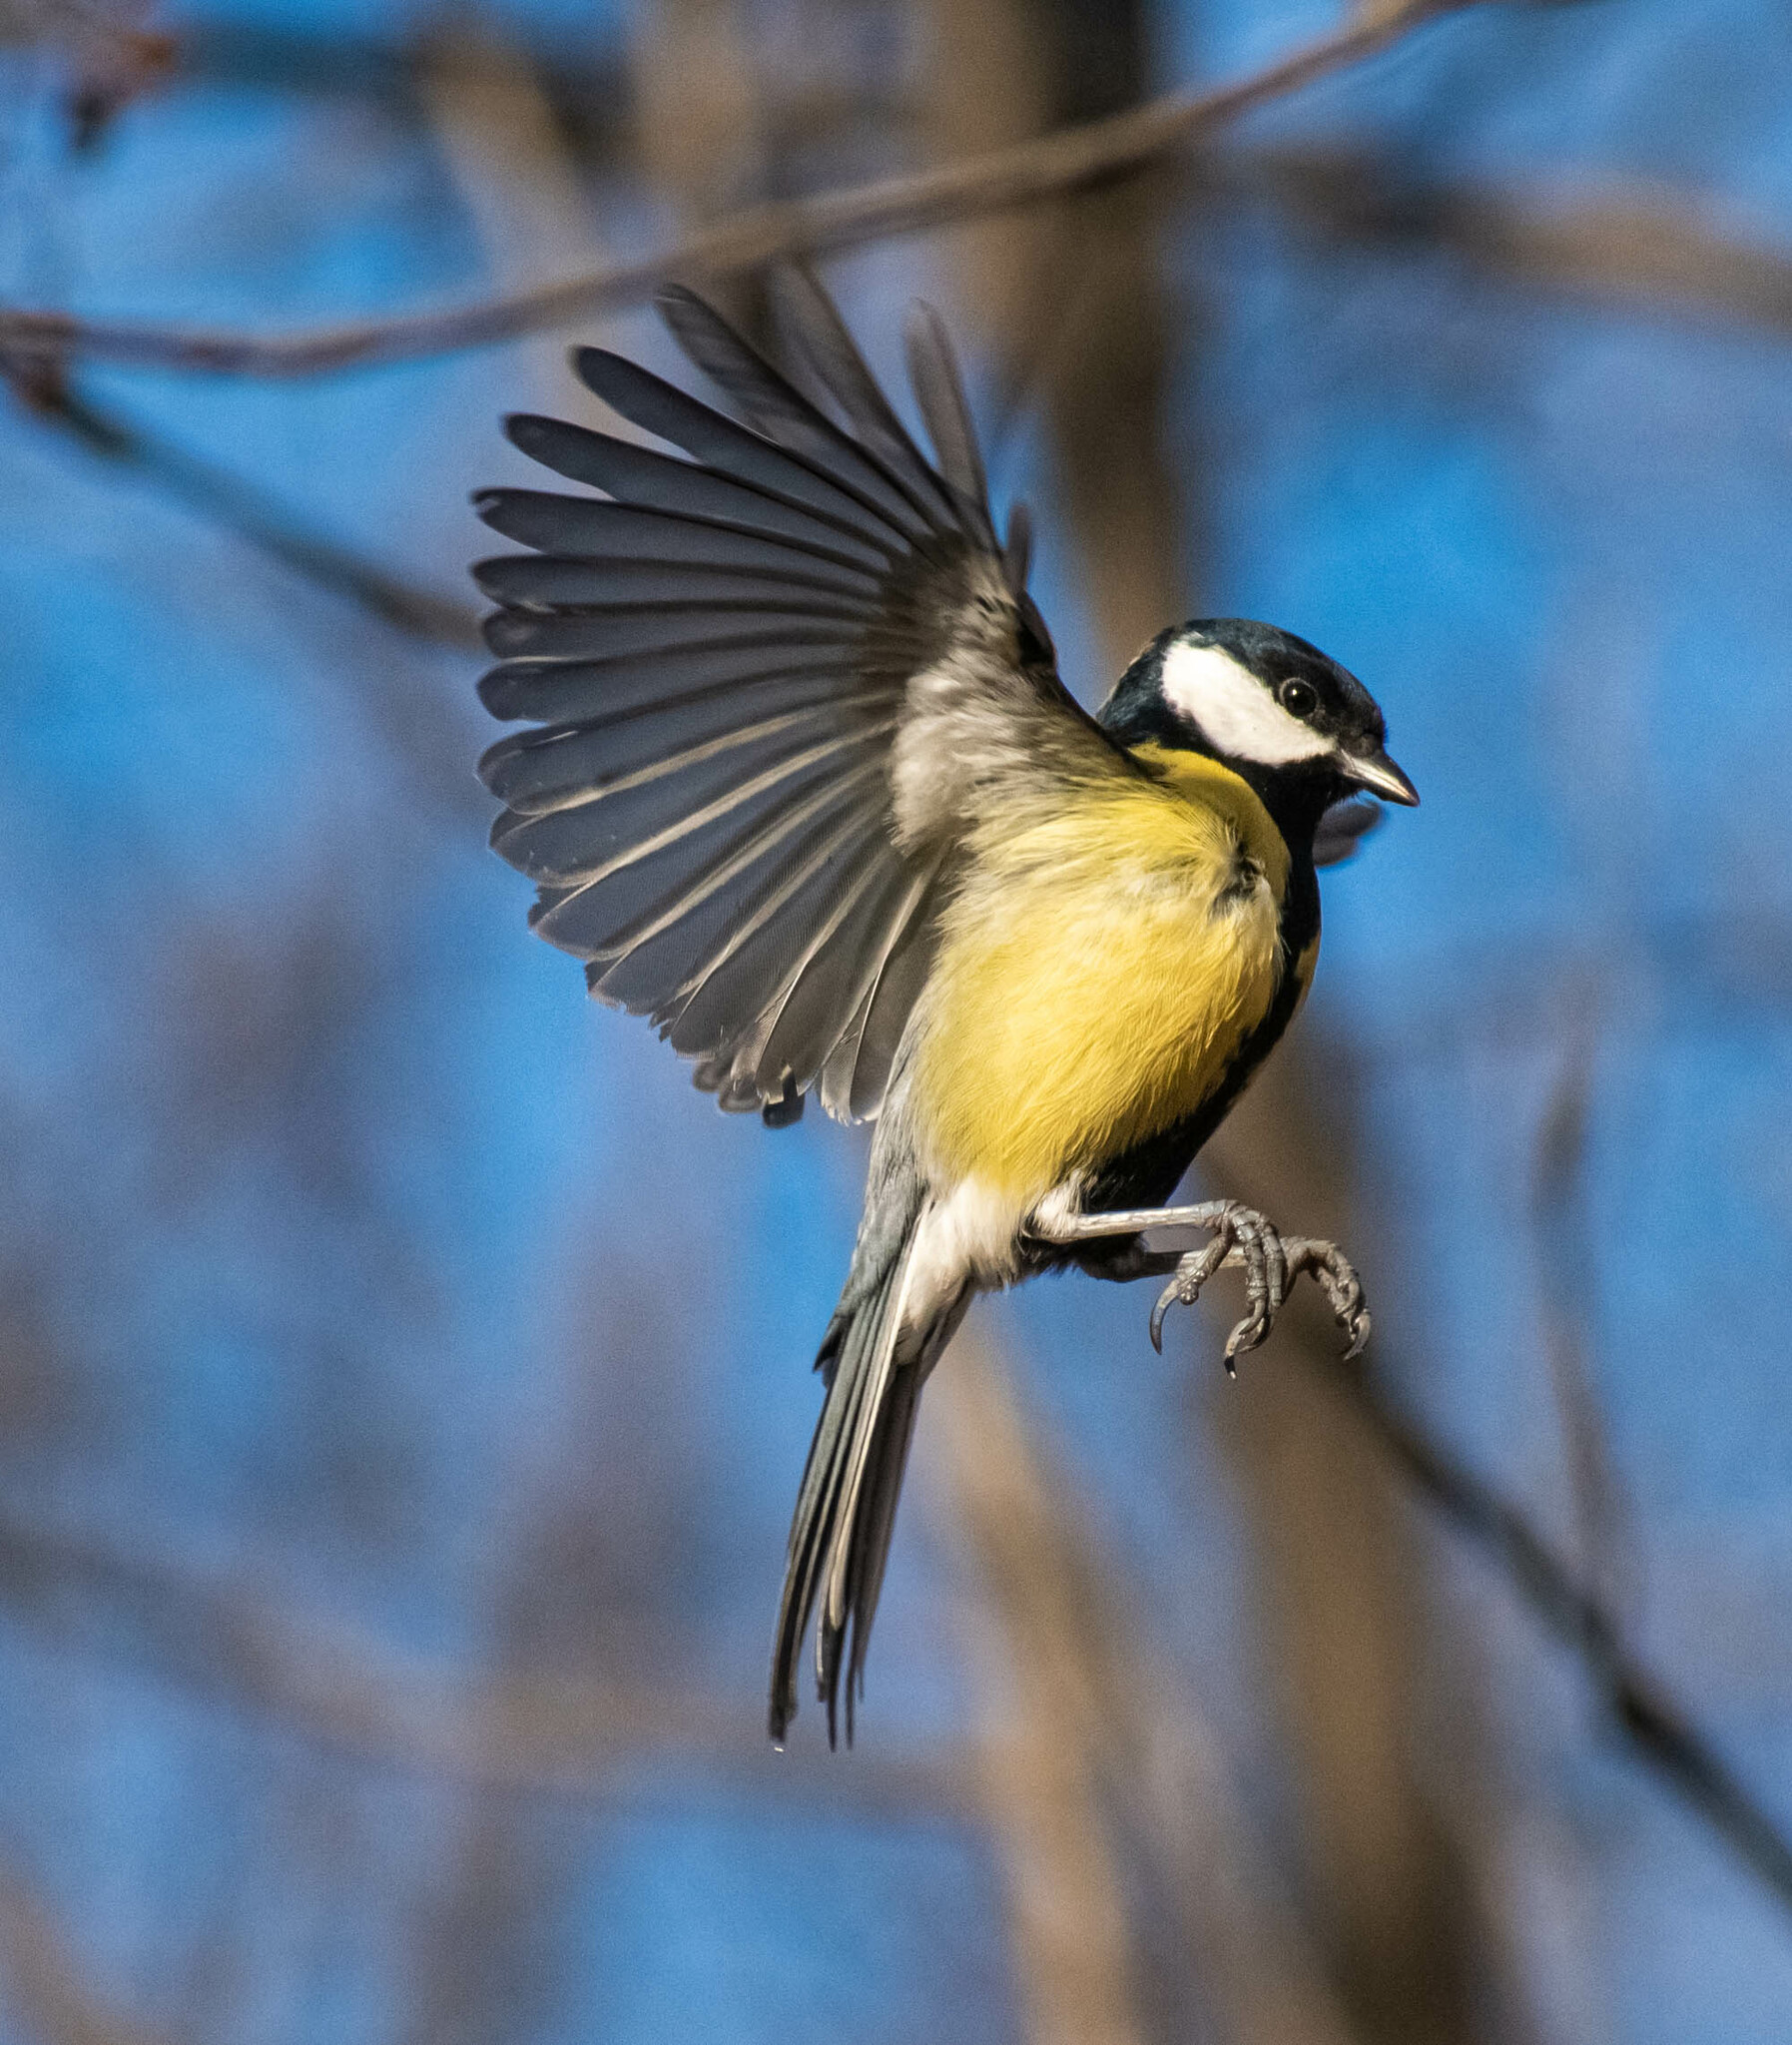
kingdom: Animalia
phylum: Chordata
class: Aves
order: Passeriformes
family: Paridae
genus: Parus
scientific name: Parus major
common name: Great tit
